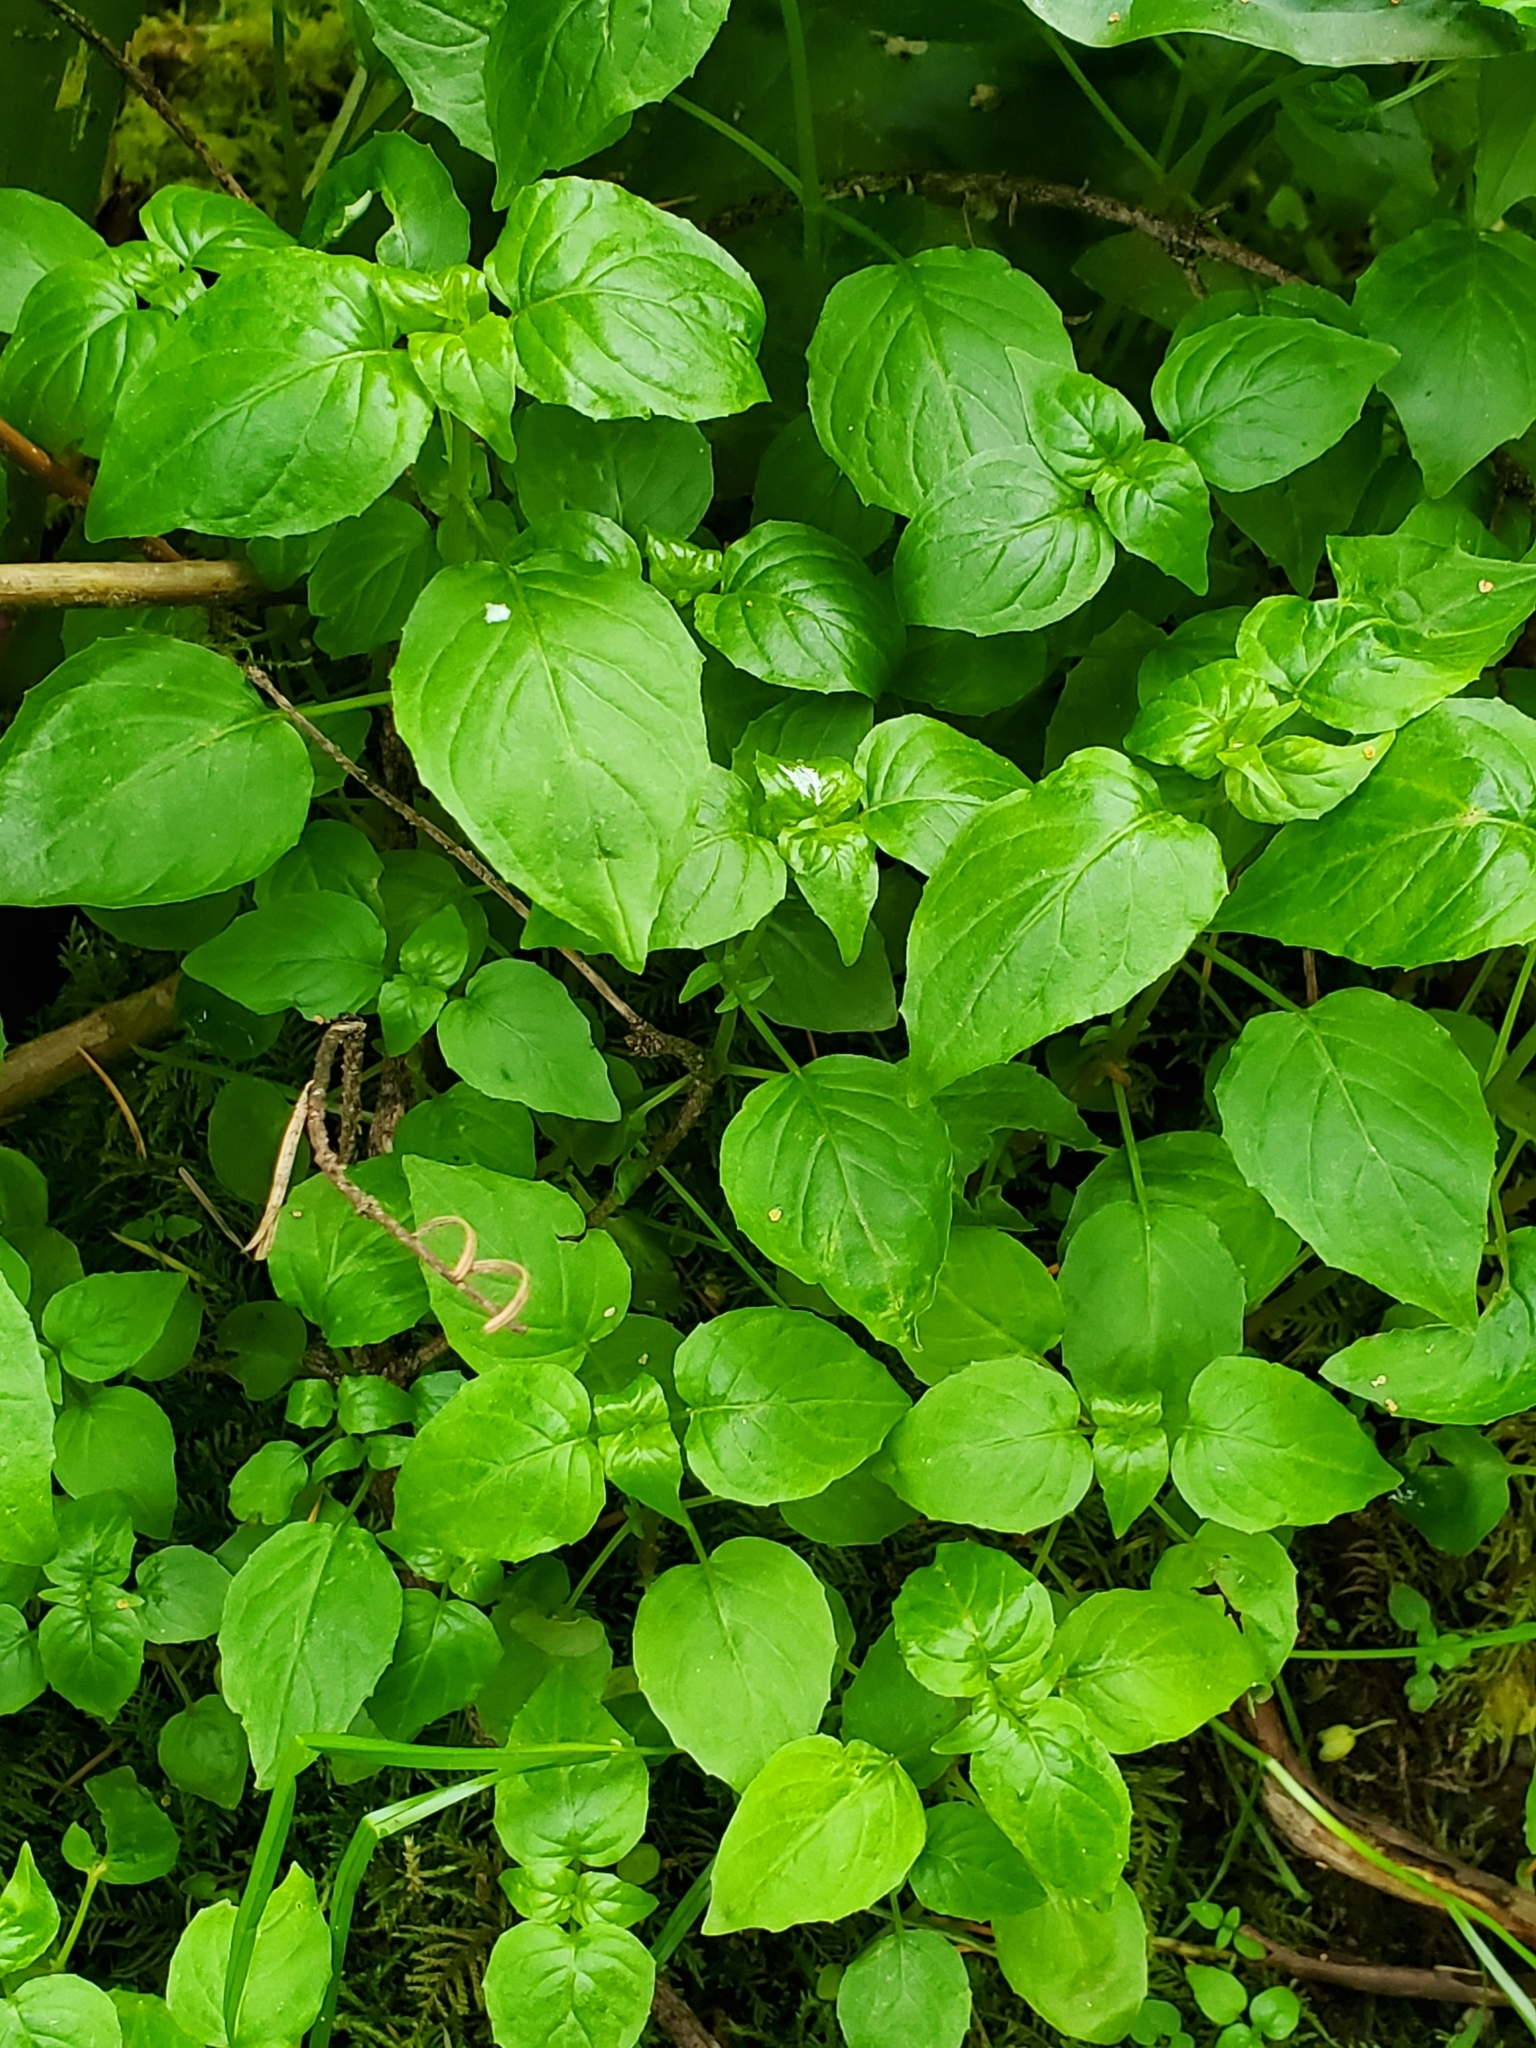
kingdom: Plantae
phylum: Tracheophyta
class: Magnoliopsida
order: Myrtales
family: Onagraceae
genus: Circaea
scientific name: Circaea alpina
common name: Alpine enchanter's-nightshade
